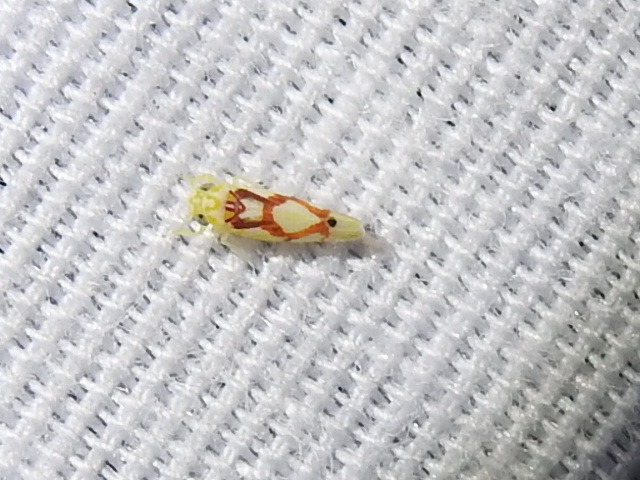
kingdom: Animalia
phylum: Arthropoda
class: Insecta
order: Hemiptera
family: Cicadellidae
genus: Eratoneura
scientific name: Eratoneura ligata
